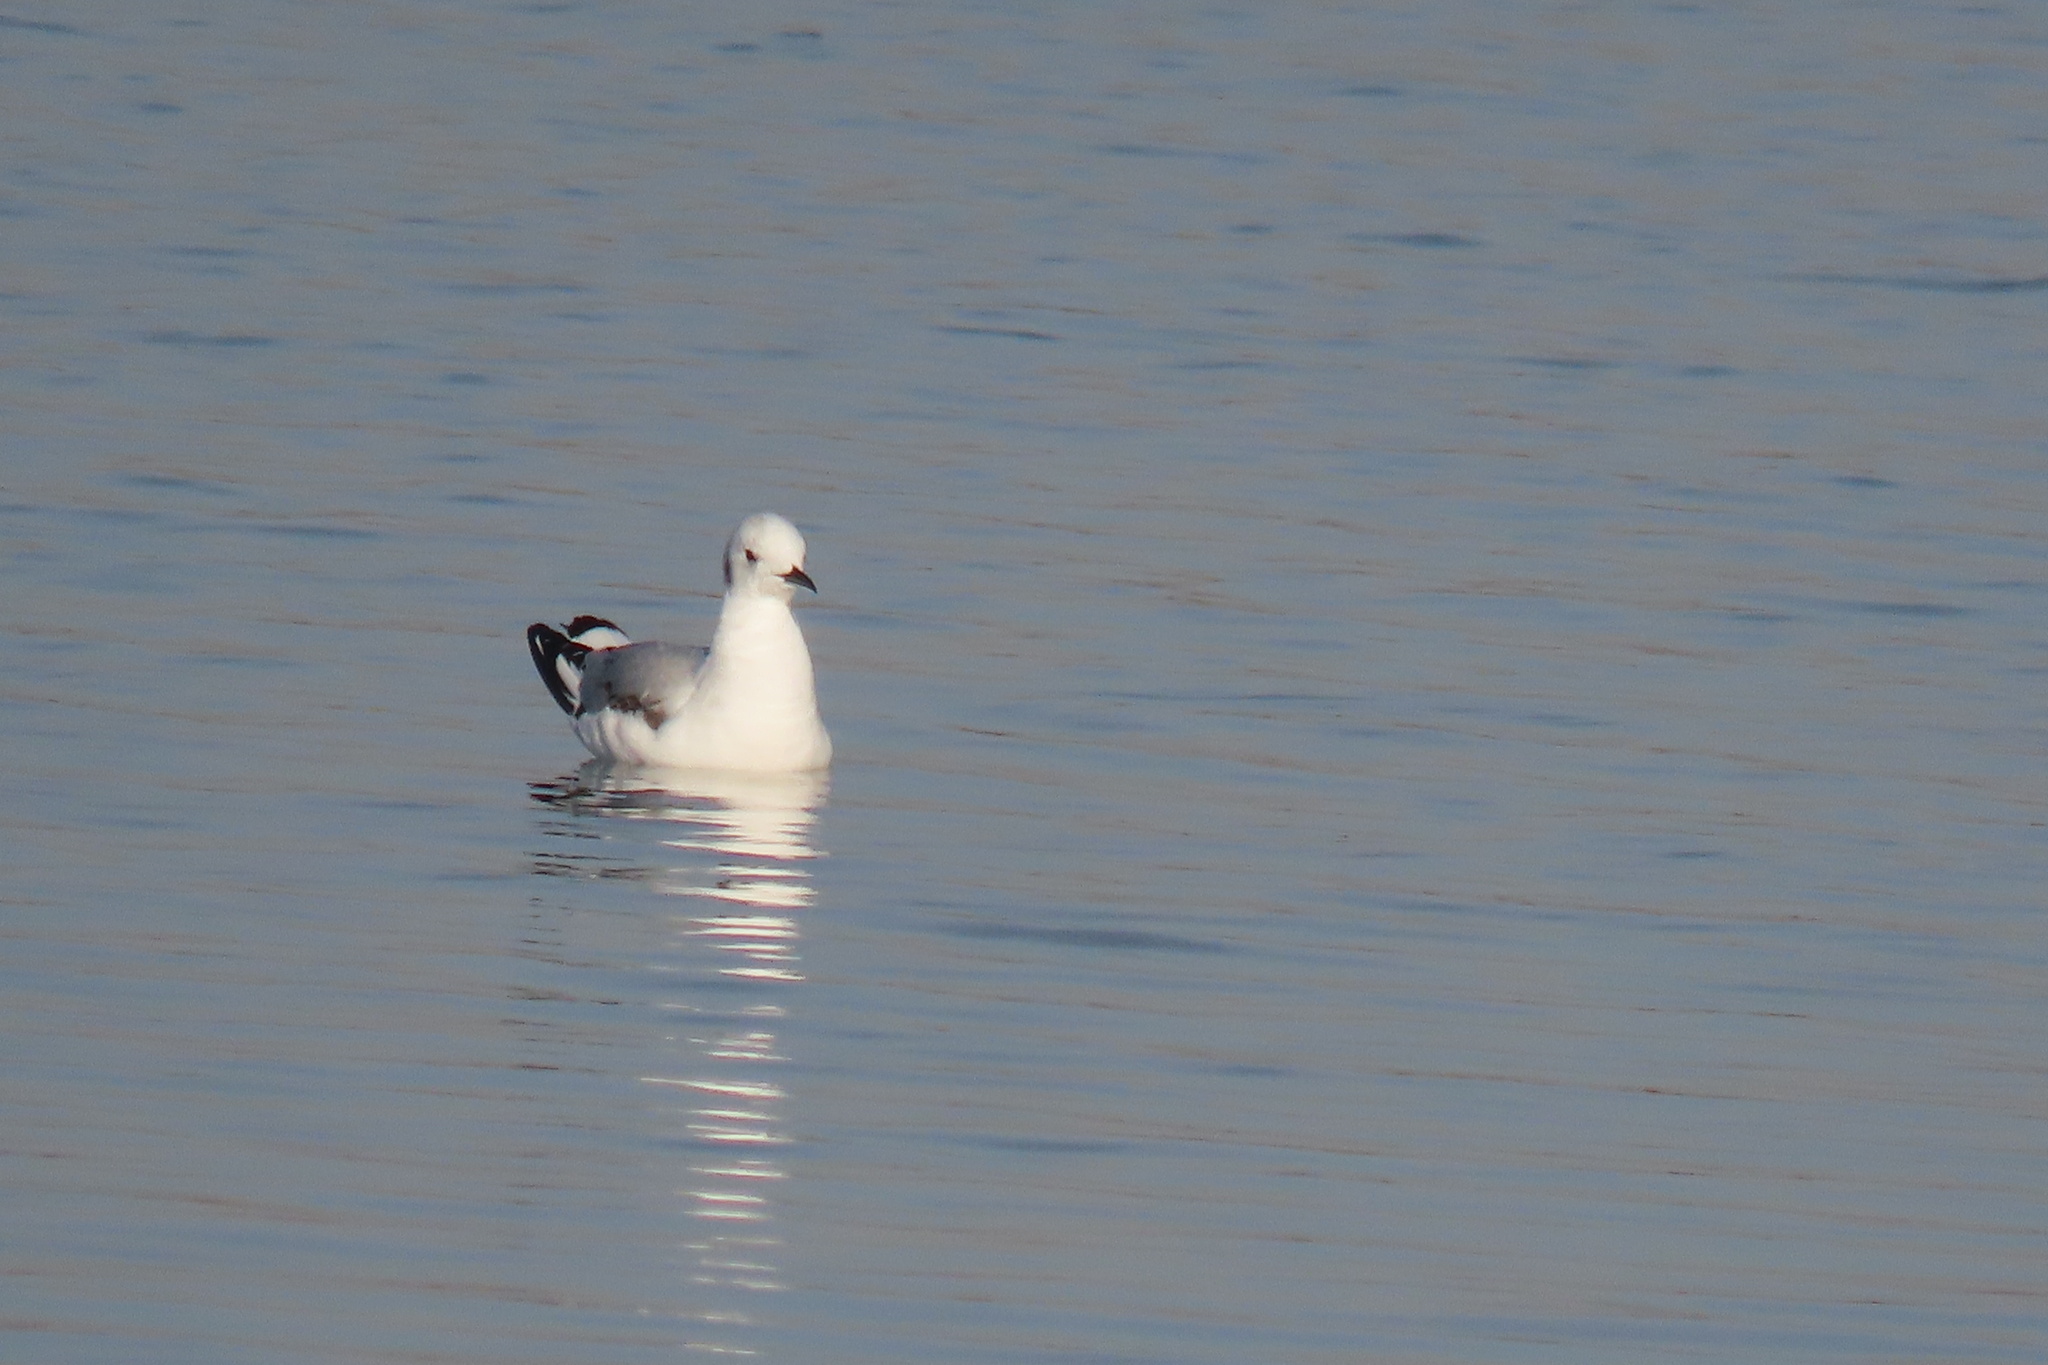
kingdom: Animalia
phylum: Chordata
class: Aves
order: Charadriiformes
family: Laridae
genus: Chroicocephalus
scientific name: Chroicocephalus philadelphia
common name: Bonaparte's gull
